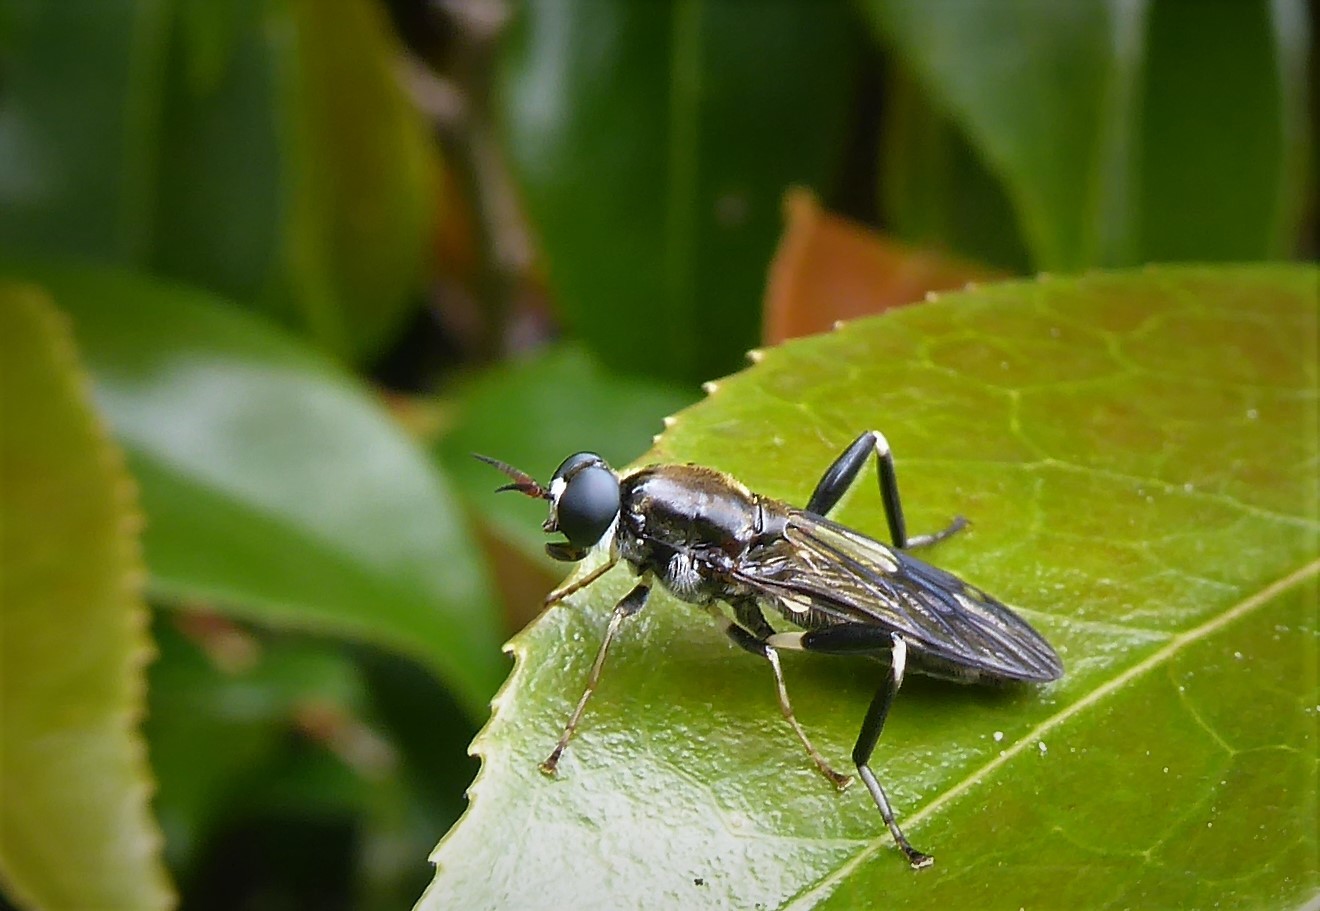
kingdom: Animalia
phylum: Arthropoda
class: Insecta
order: Diptera
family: Stratiomyidae
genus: Exaireta
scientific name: Exaireta spinigera
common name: Blue soldier fly
